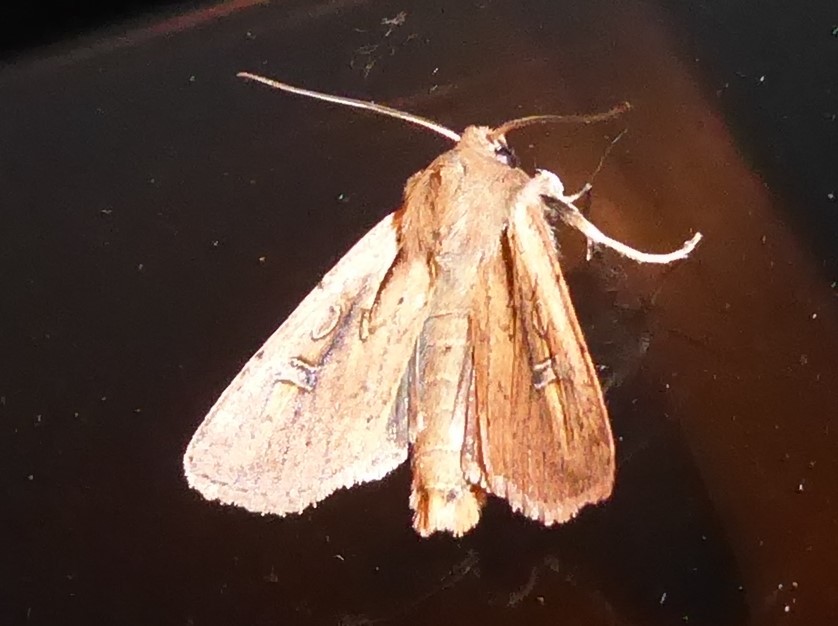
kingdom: Animalia
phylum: Arthropoda
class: Insecta
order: Lepidoptera
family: Noctuidae
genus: Ichneutica
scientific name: Ichneutica atristriga
